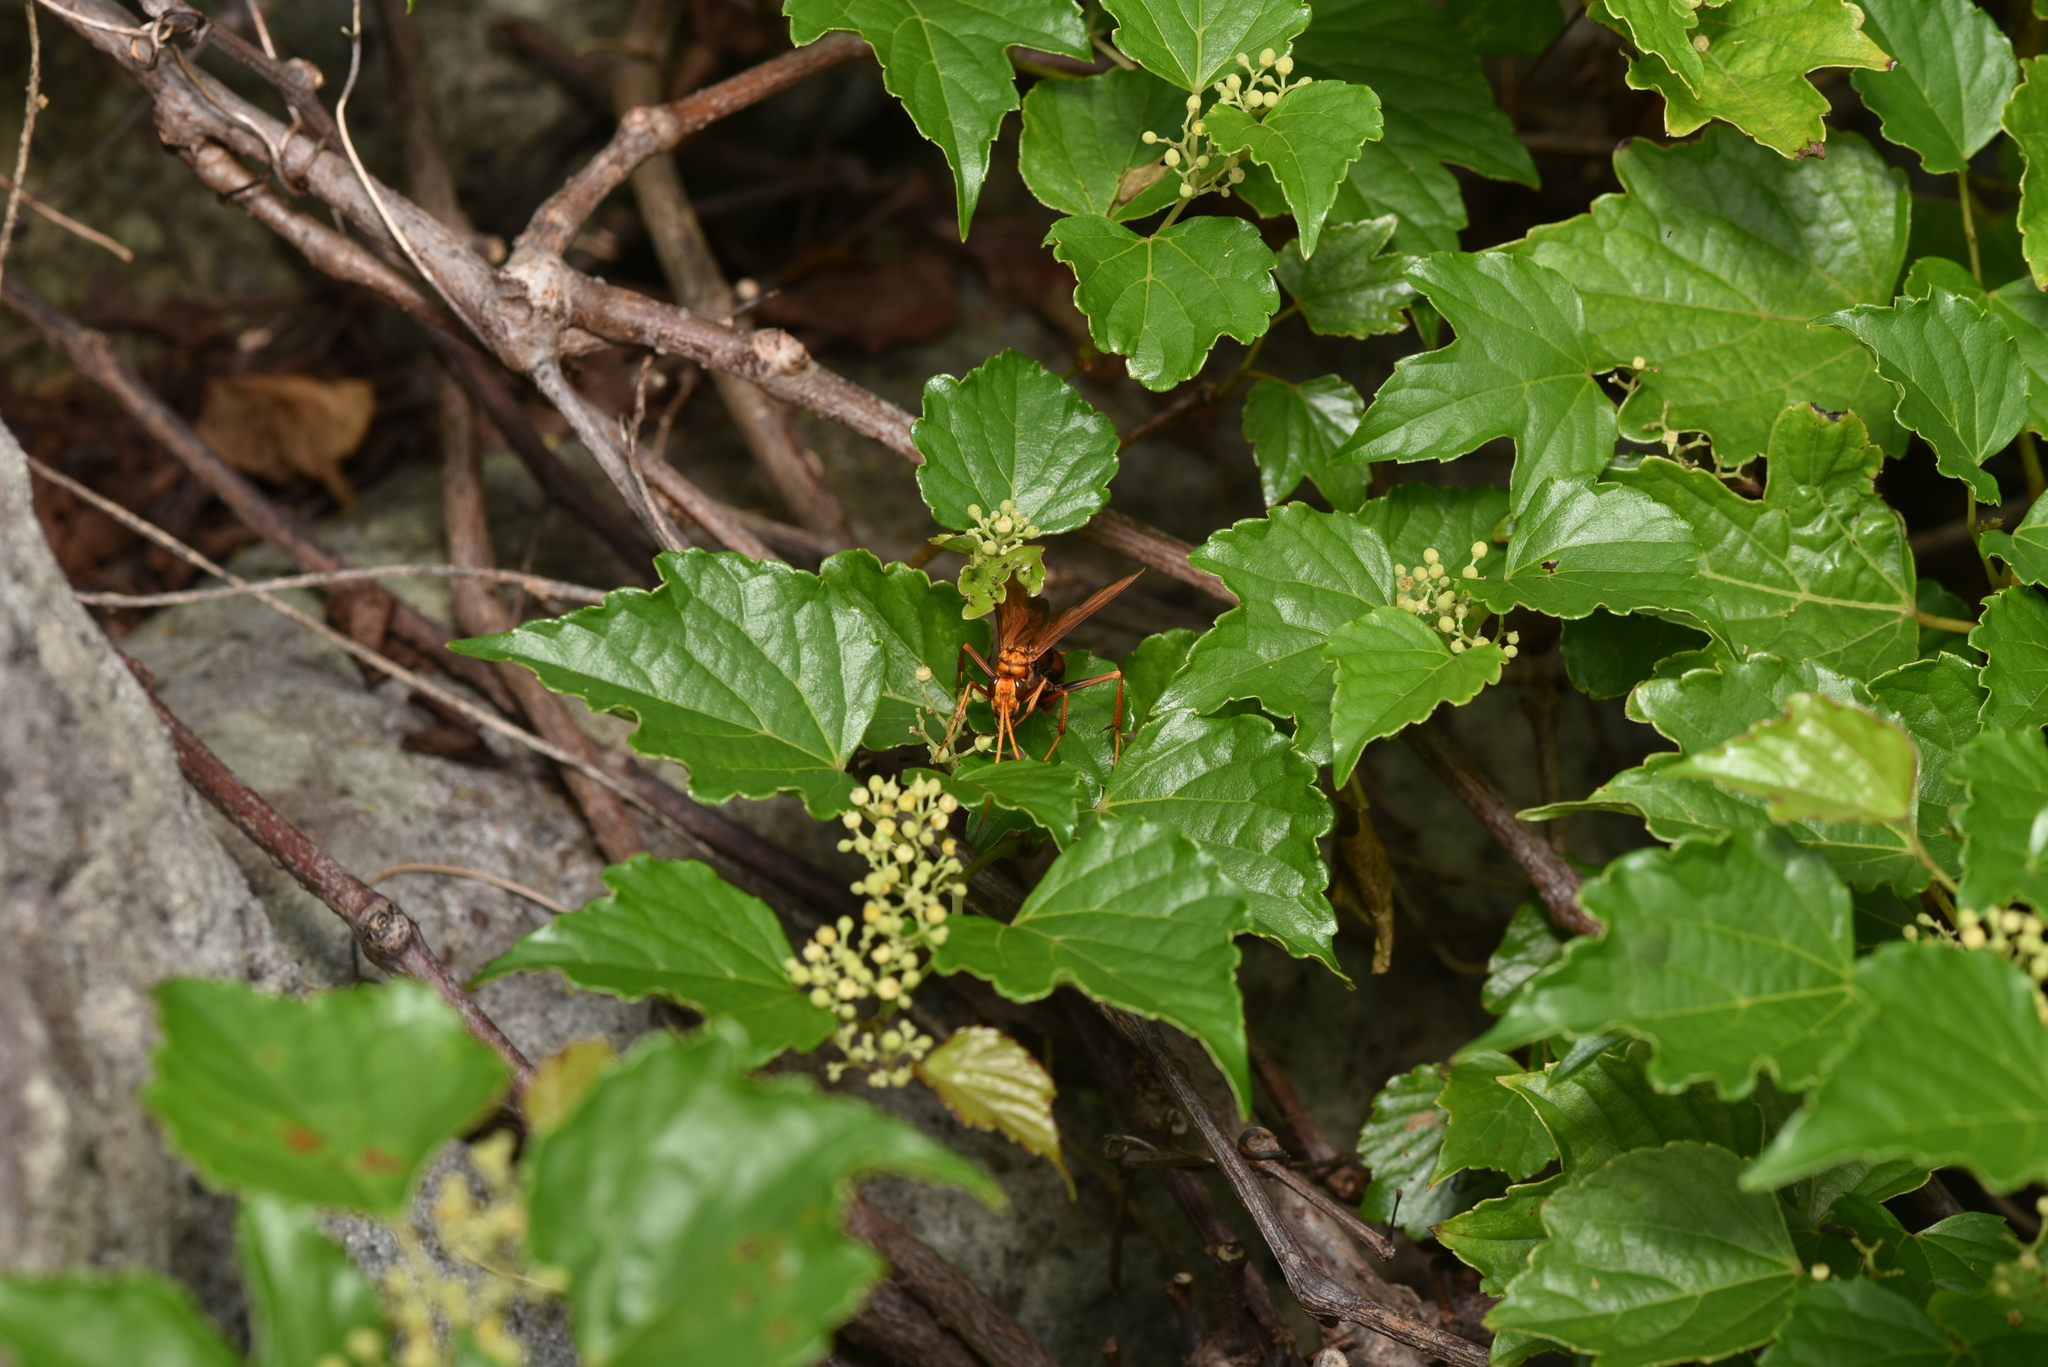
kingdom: Plantae
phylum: Tracheophyta
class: Magnoliopsida
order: Vitales
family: Vitaceae
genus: Ampelopsis
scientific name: Ampelopsis glandulosa
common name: Amur peppervine
